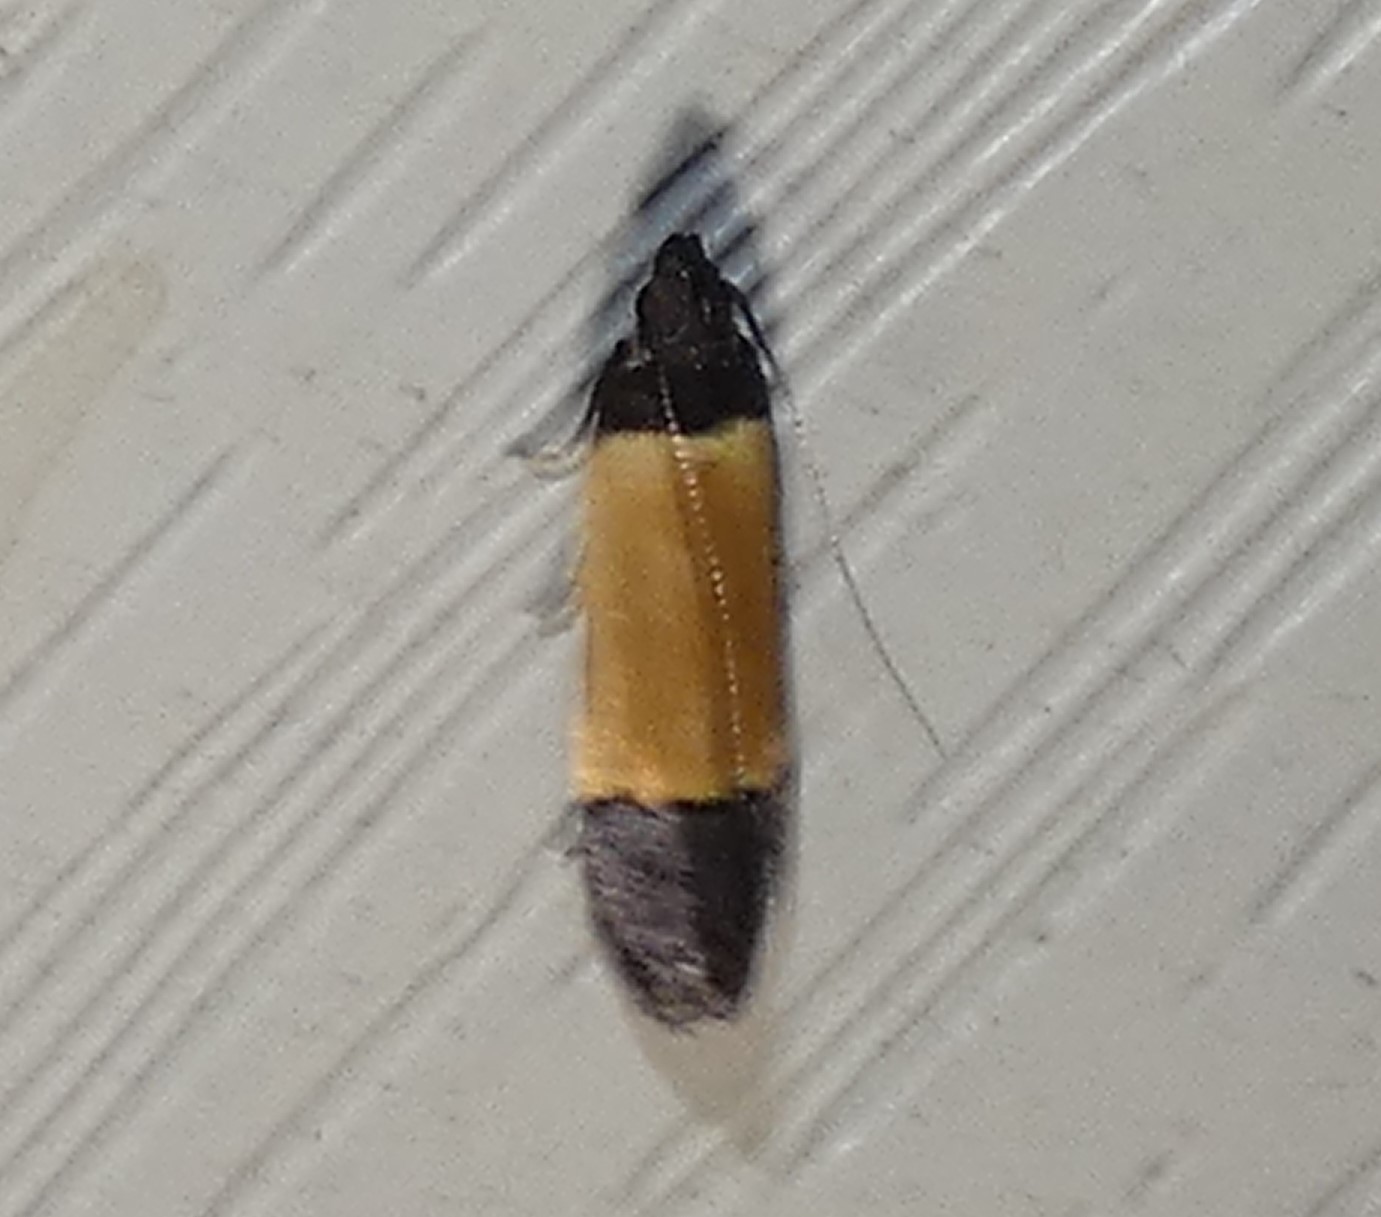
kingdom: Animalia
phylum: Arthropoda
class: Insecta
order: Lepidoptera
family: Gelechiidae
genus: Anacampsis
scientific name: Anacampsis coverdalella
